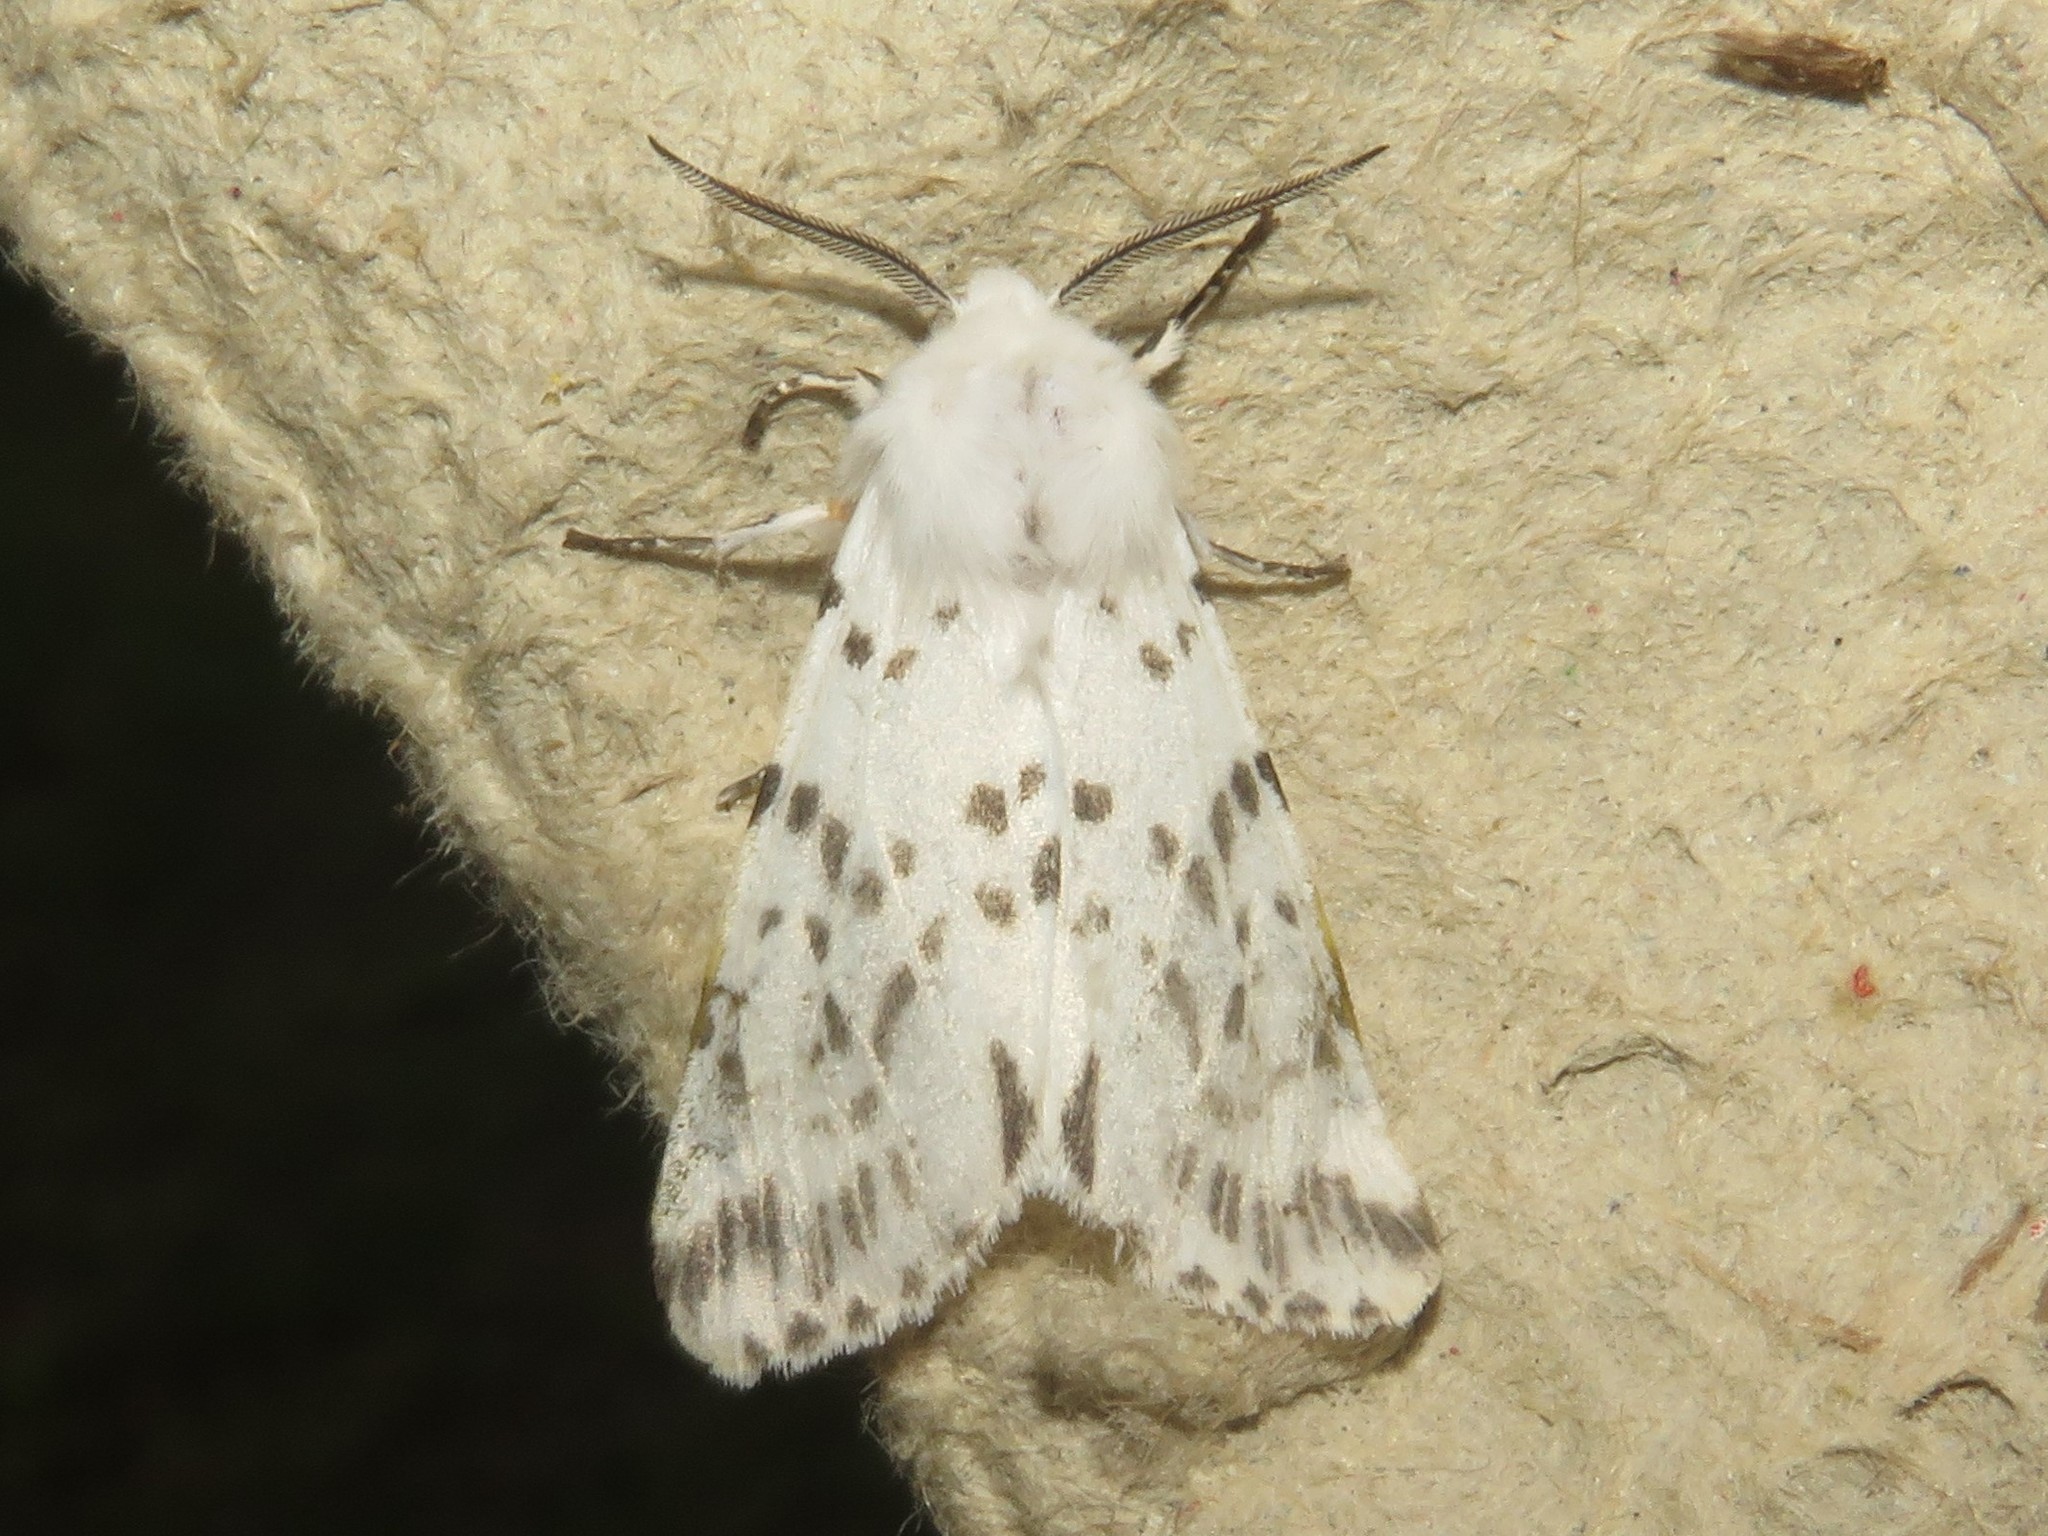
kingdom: Animalia
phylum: Arthropoda
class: Insecta
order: Lepidoptera
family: Erebidae
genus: Hyphantria
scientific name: Hyphantria cunea
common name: American white moth
